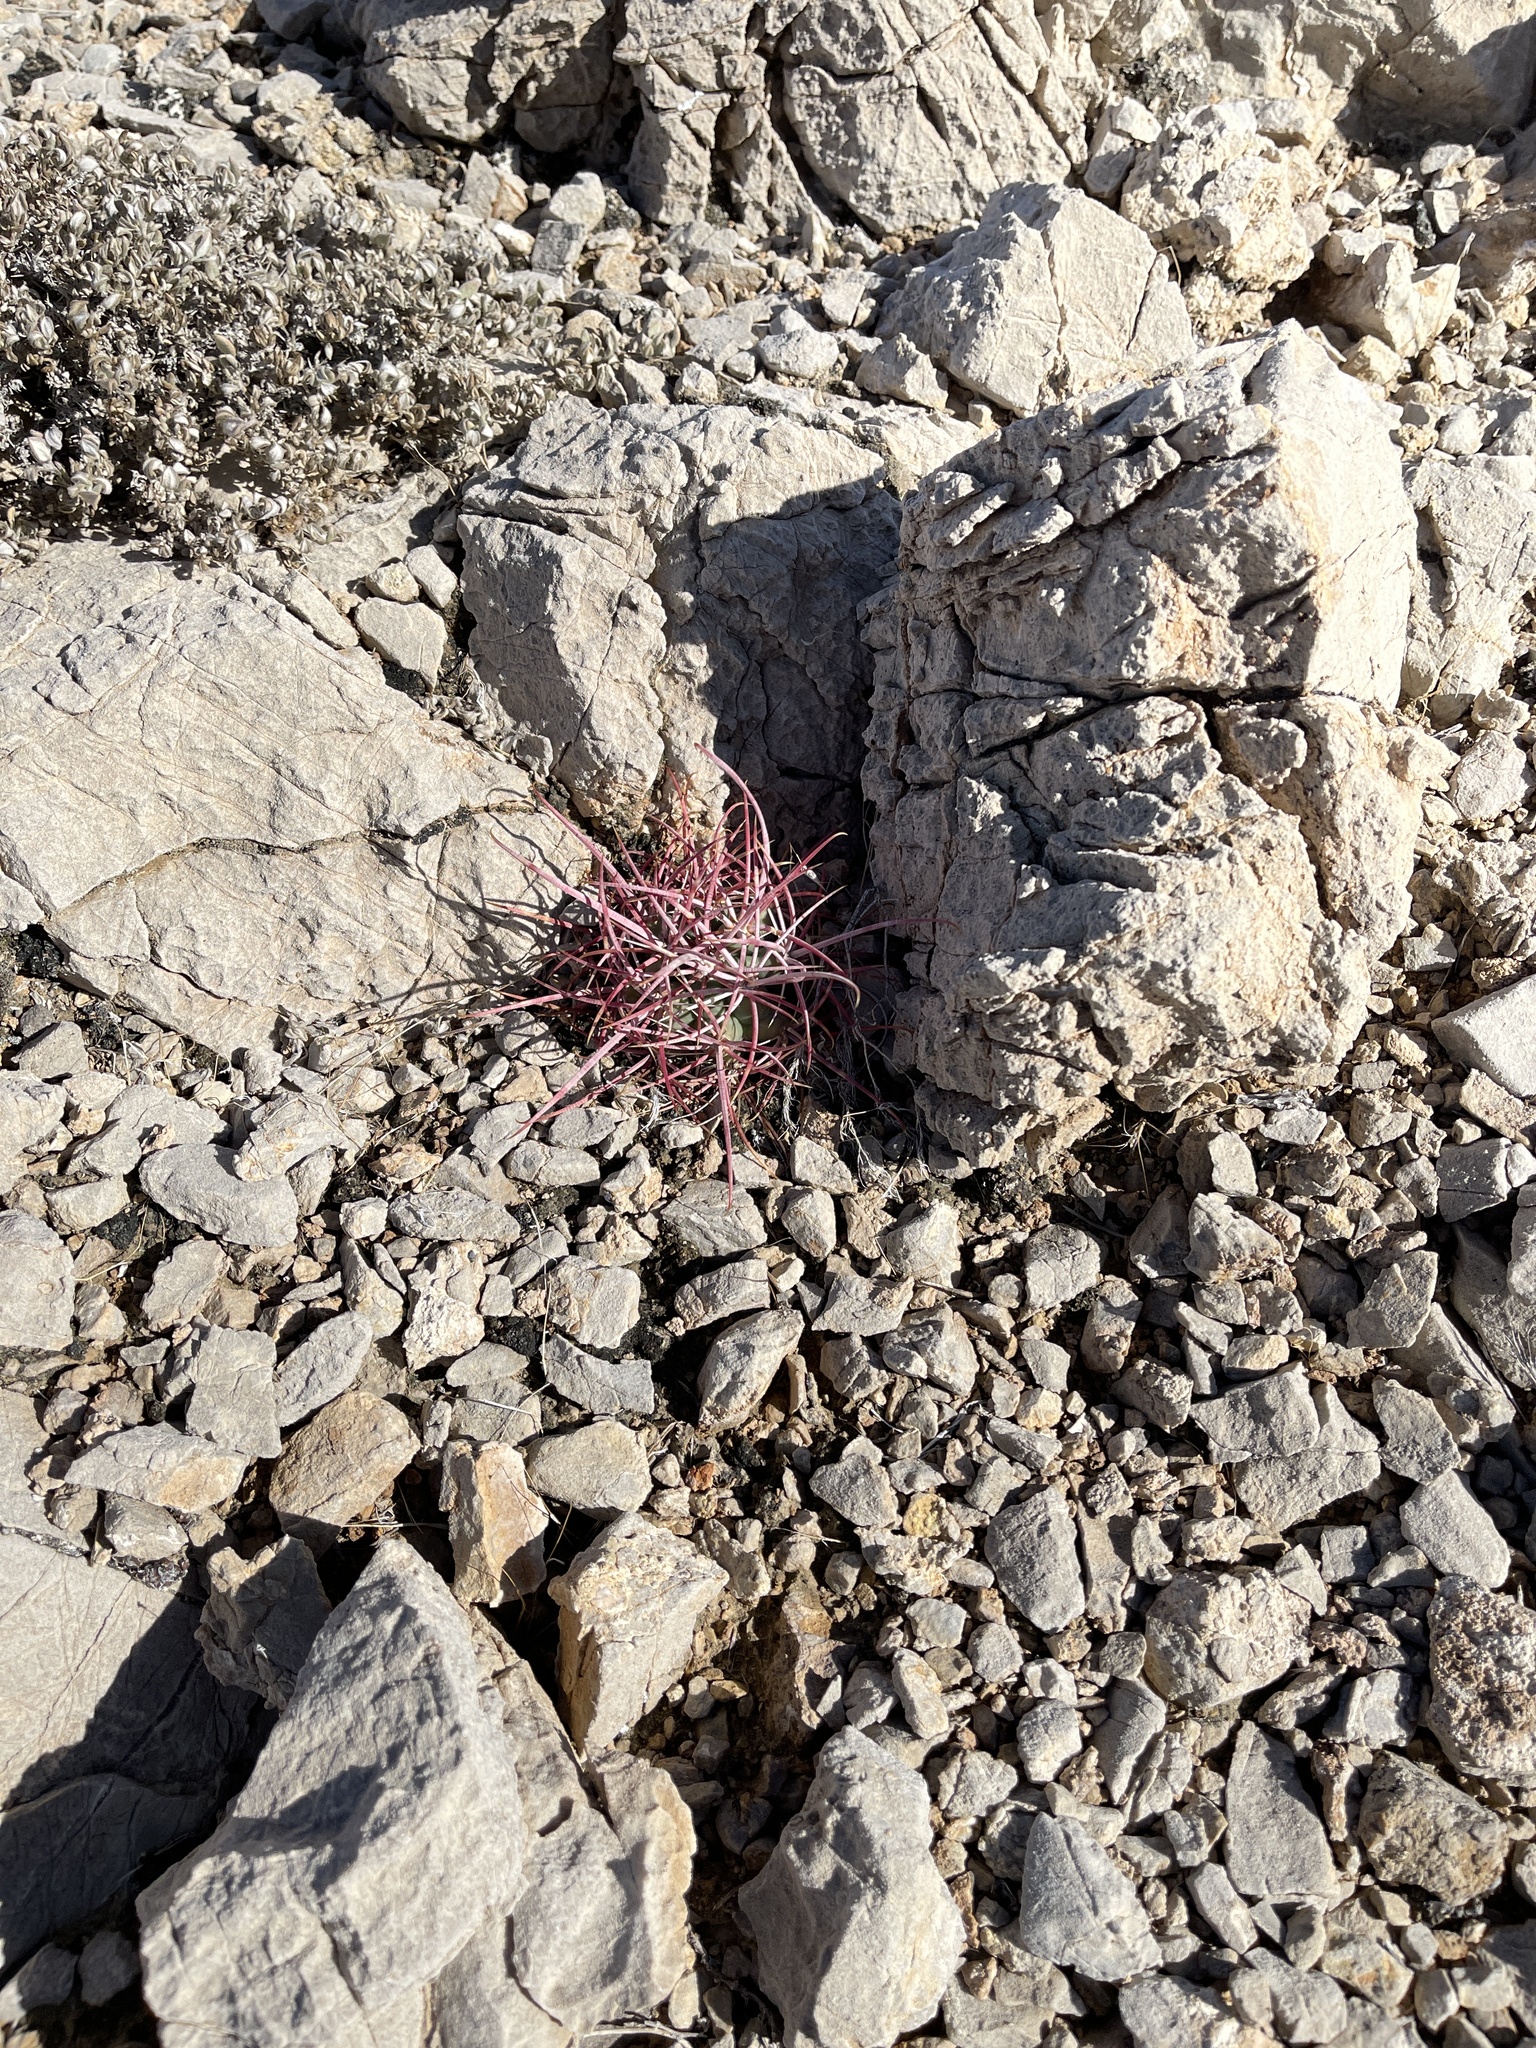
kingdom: Plantae
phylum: Tracheophyta
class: Magnoliopsida
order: Caryophyllales
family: Cactaceae
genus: Ferocactus
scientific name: Ferocactus cylindraceus
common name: California barrel cactus
